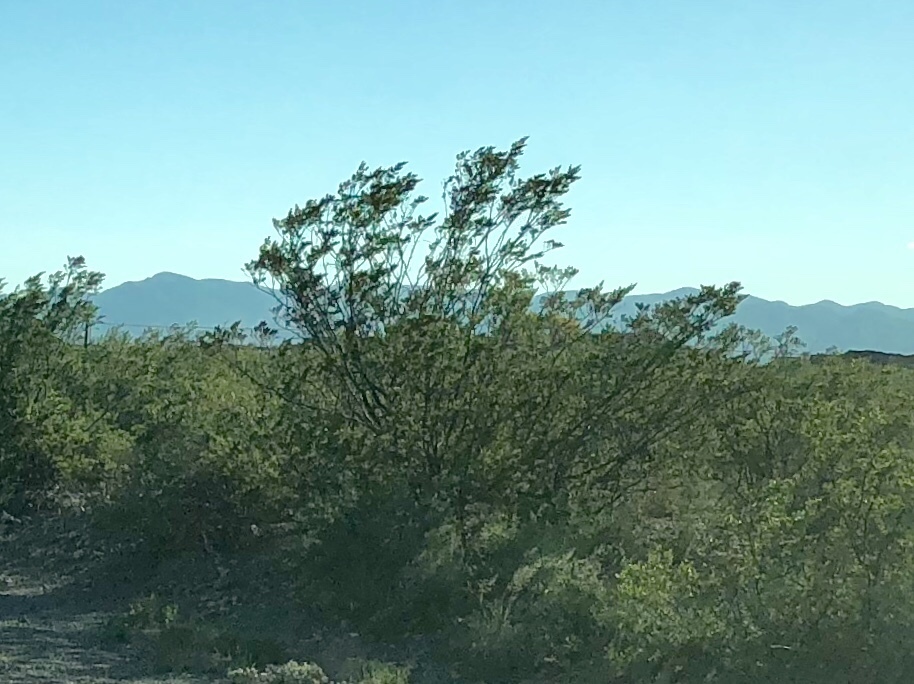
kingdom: Plantae
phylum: Tracheophyta
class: Magnoliopsida
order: Zygophyllales
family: Zygophyllaceae
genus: Larrea
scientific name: Larrea tridentata
